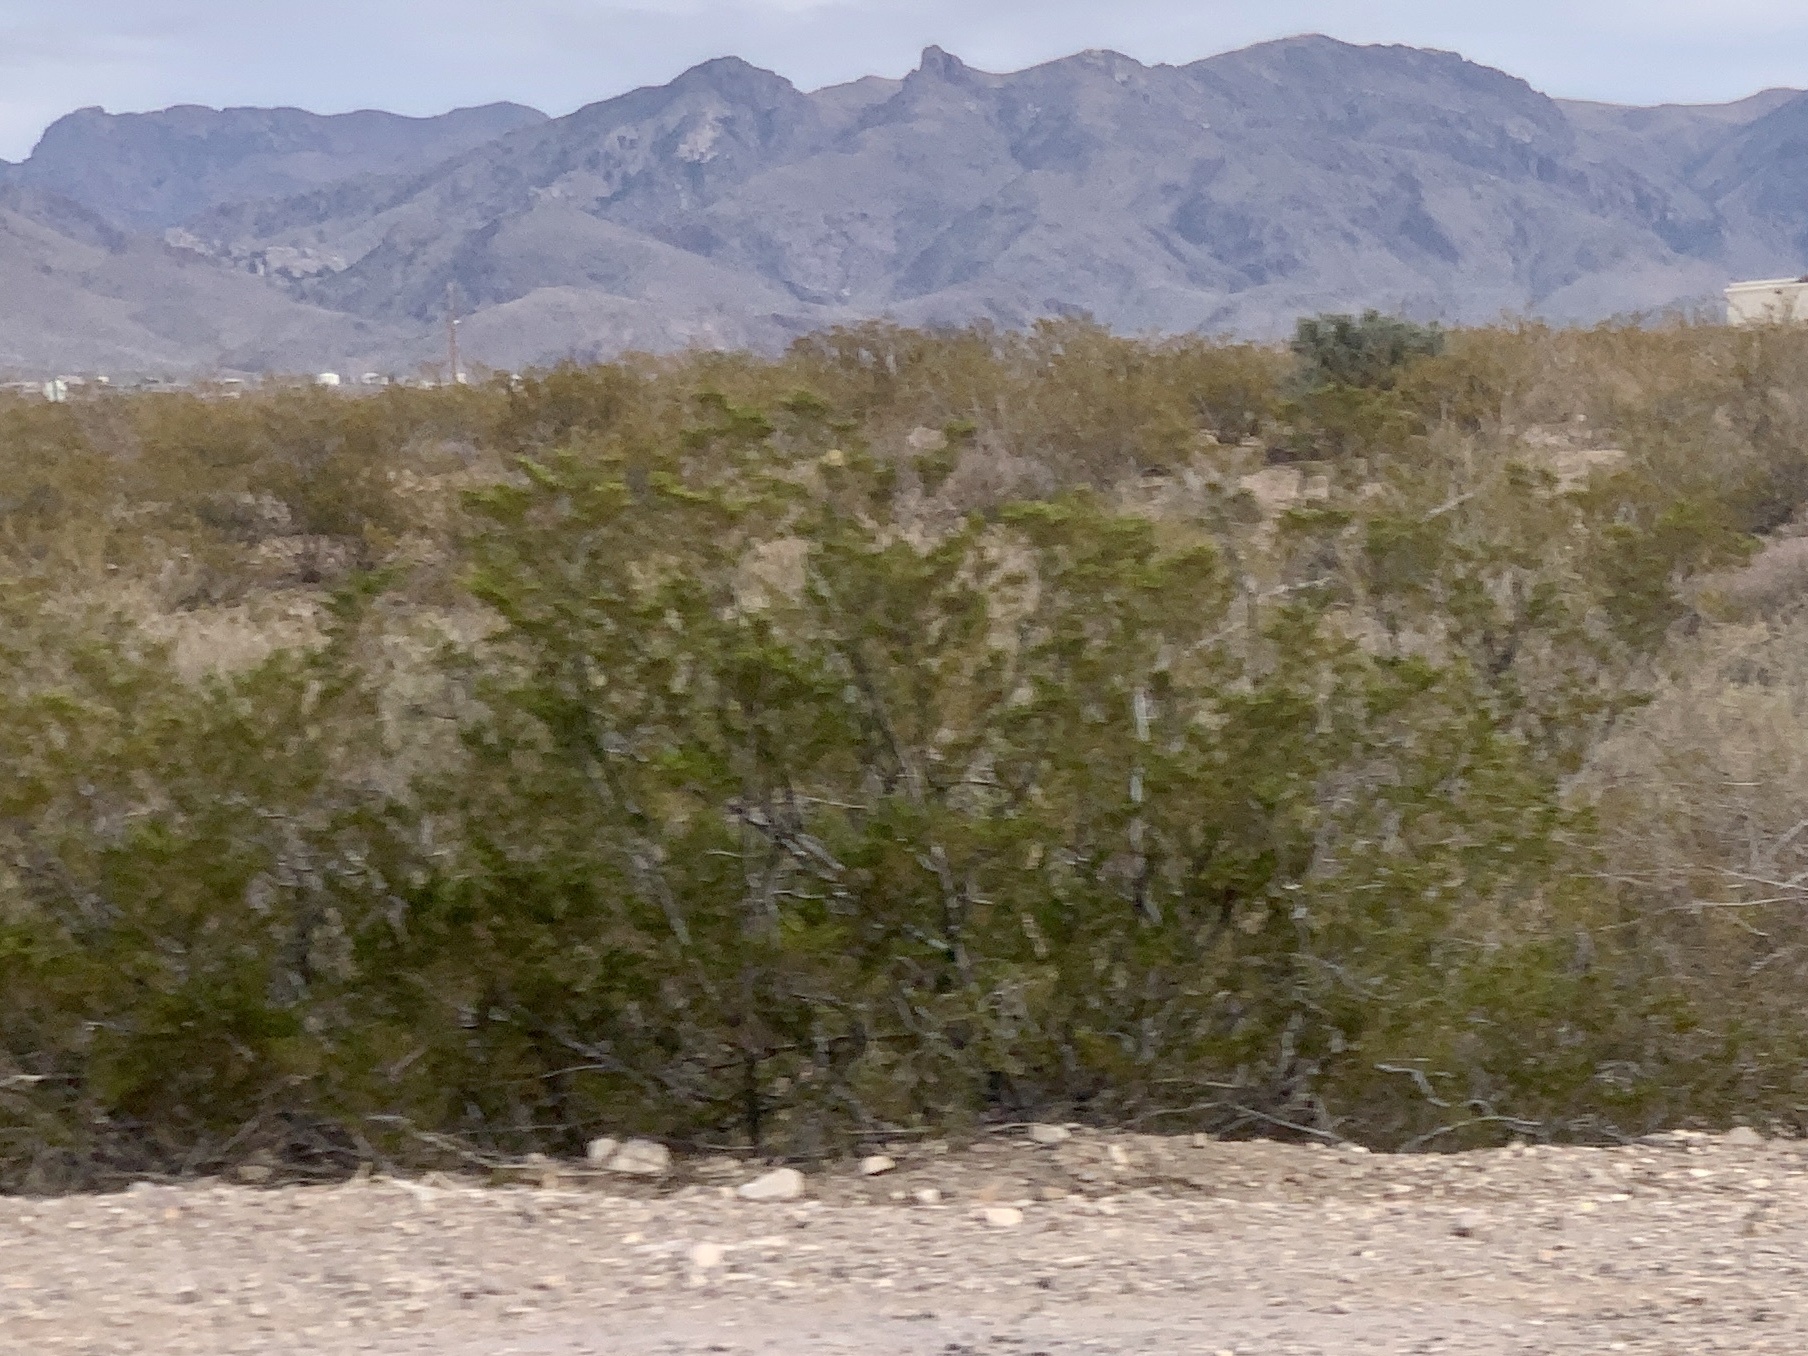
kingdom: Plantae
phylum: Tracheophyta
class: Magnoliopsida
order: Zygophyllales
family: Zygophyllaceae
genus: Larrea
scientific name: Larrea tridentata
